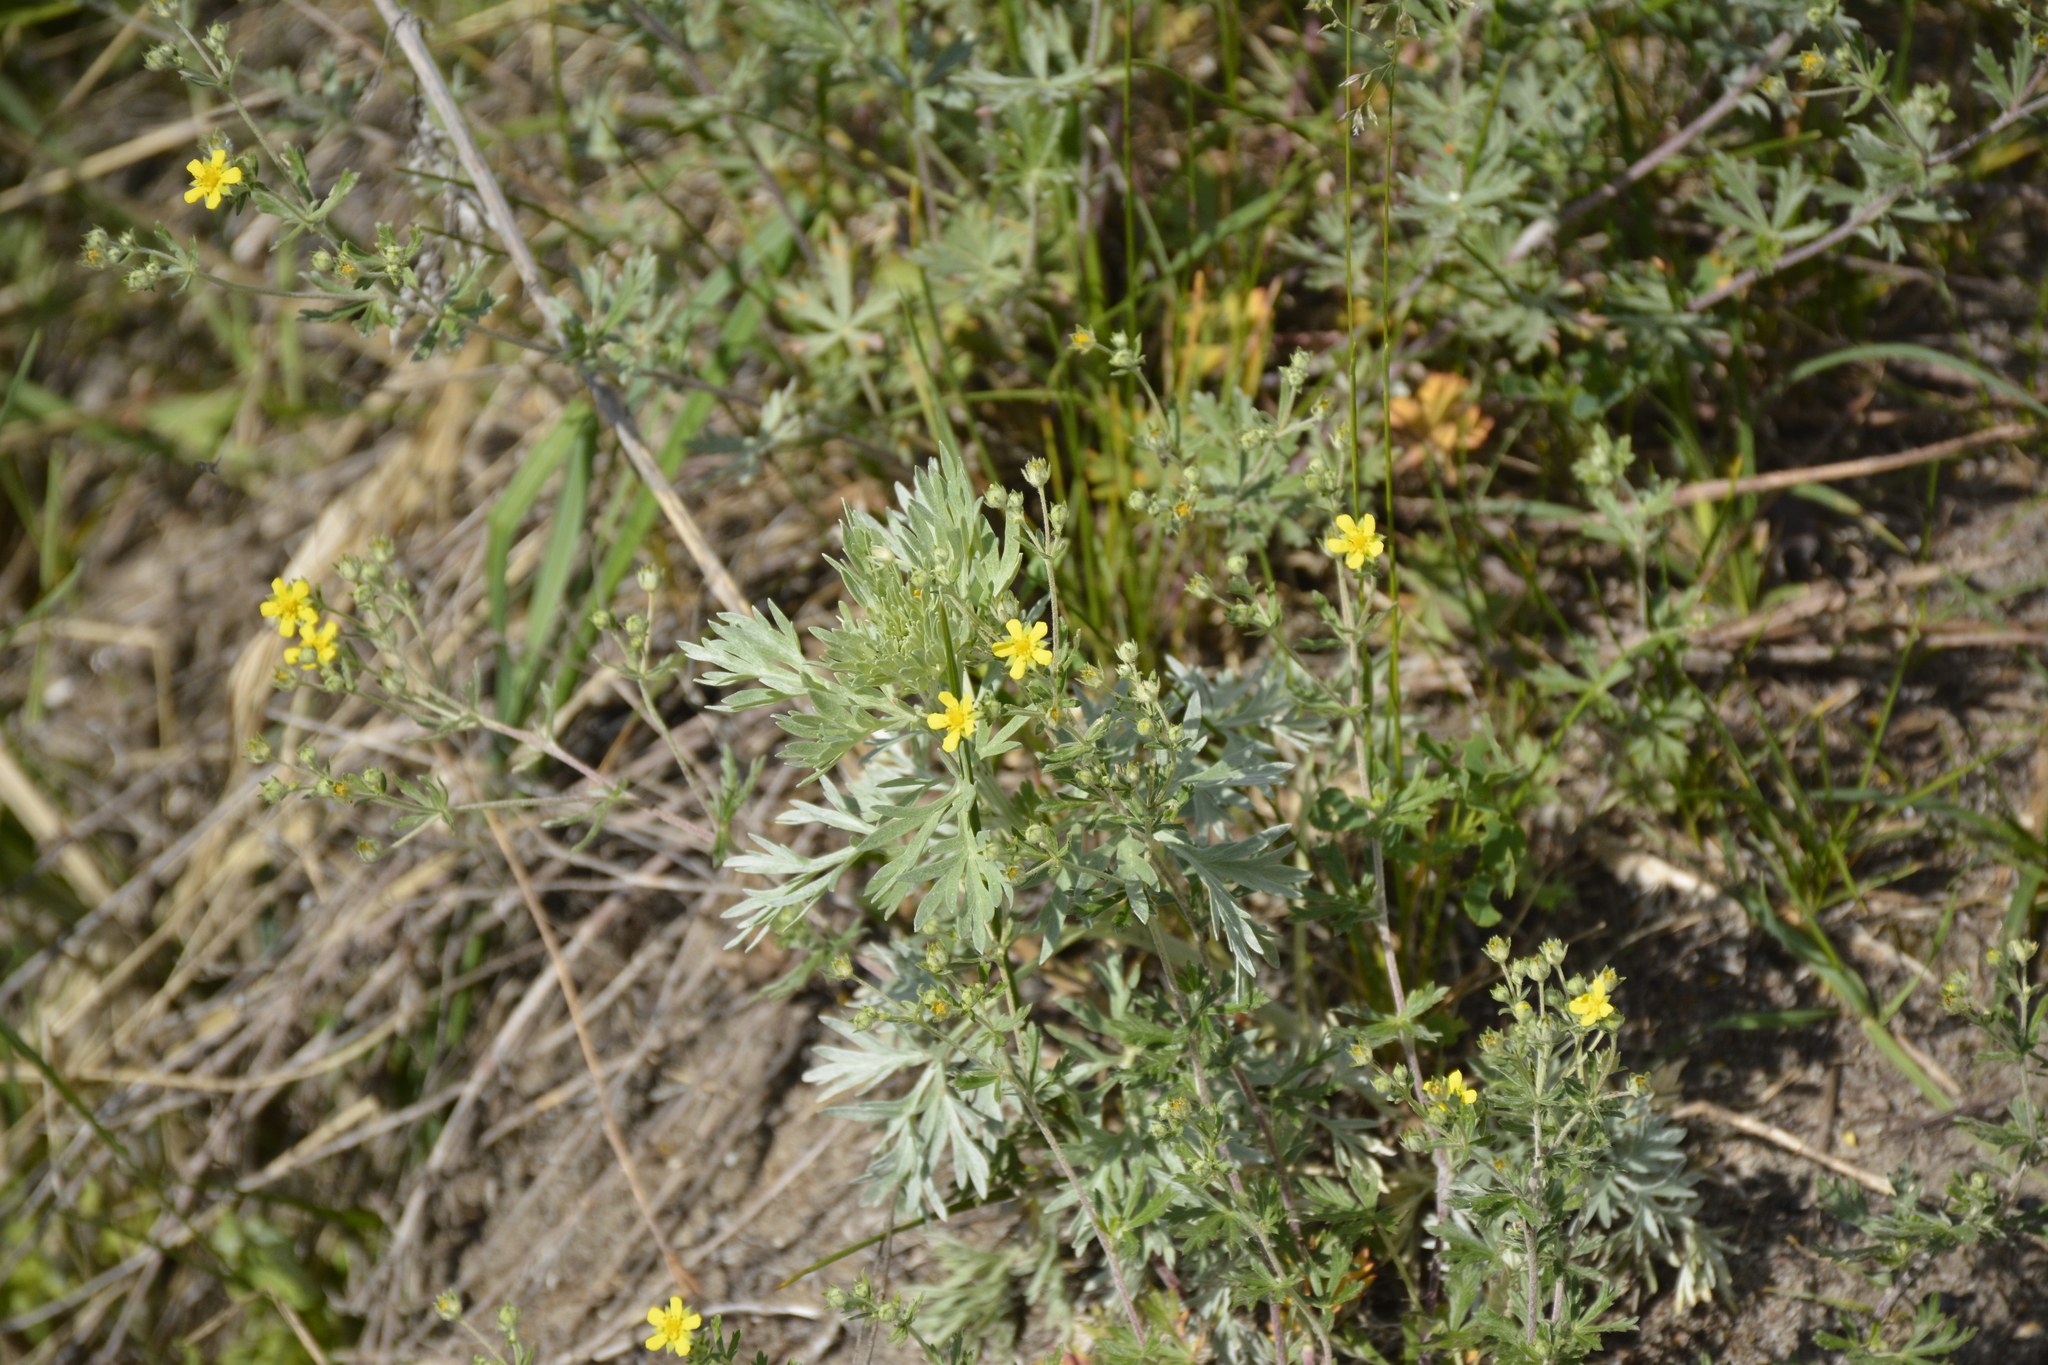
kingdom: Plantae
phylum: Tracheophyta
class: Magnoliopsida
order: Rosales
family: Rosaceae
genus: Potentilla
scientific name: Potentilla argentea
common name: Hoary cinquefoil
